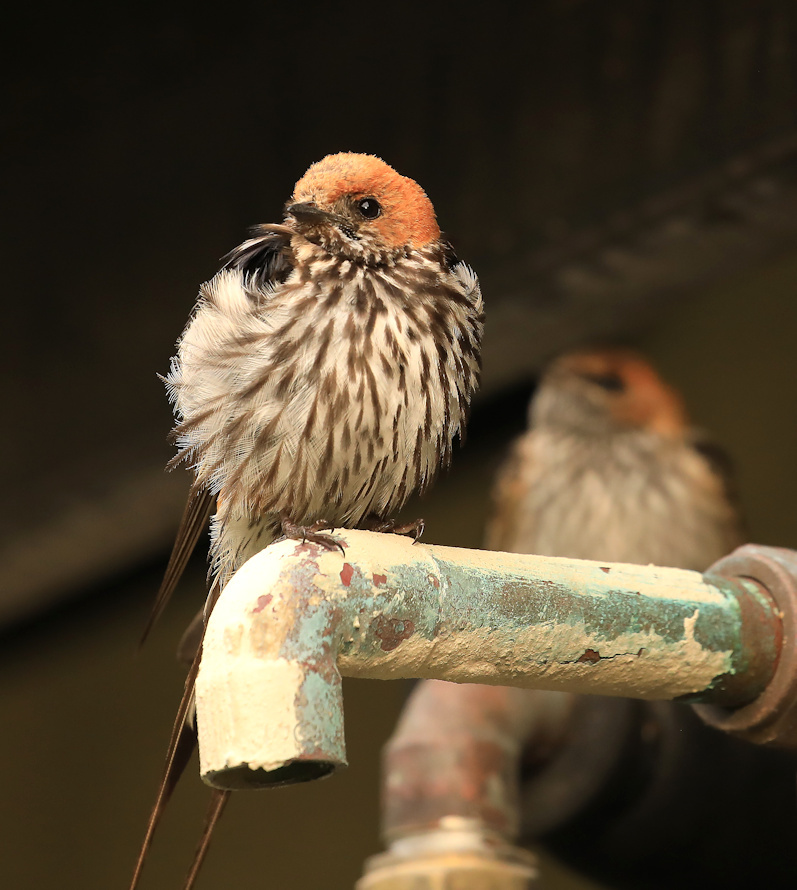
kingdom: Animalia
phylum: Chordata
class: Aves
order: Passeriformes
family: Hirundinidae
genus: Cecropis
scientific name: Cecropis abyssinica
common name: Lesser striped-swallow
